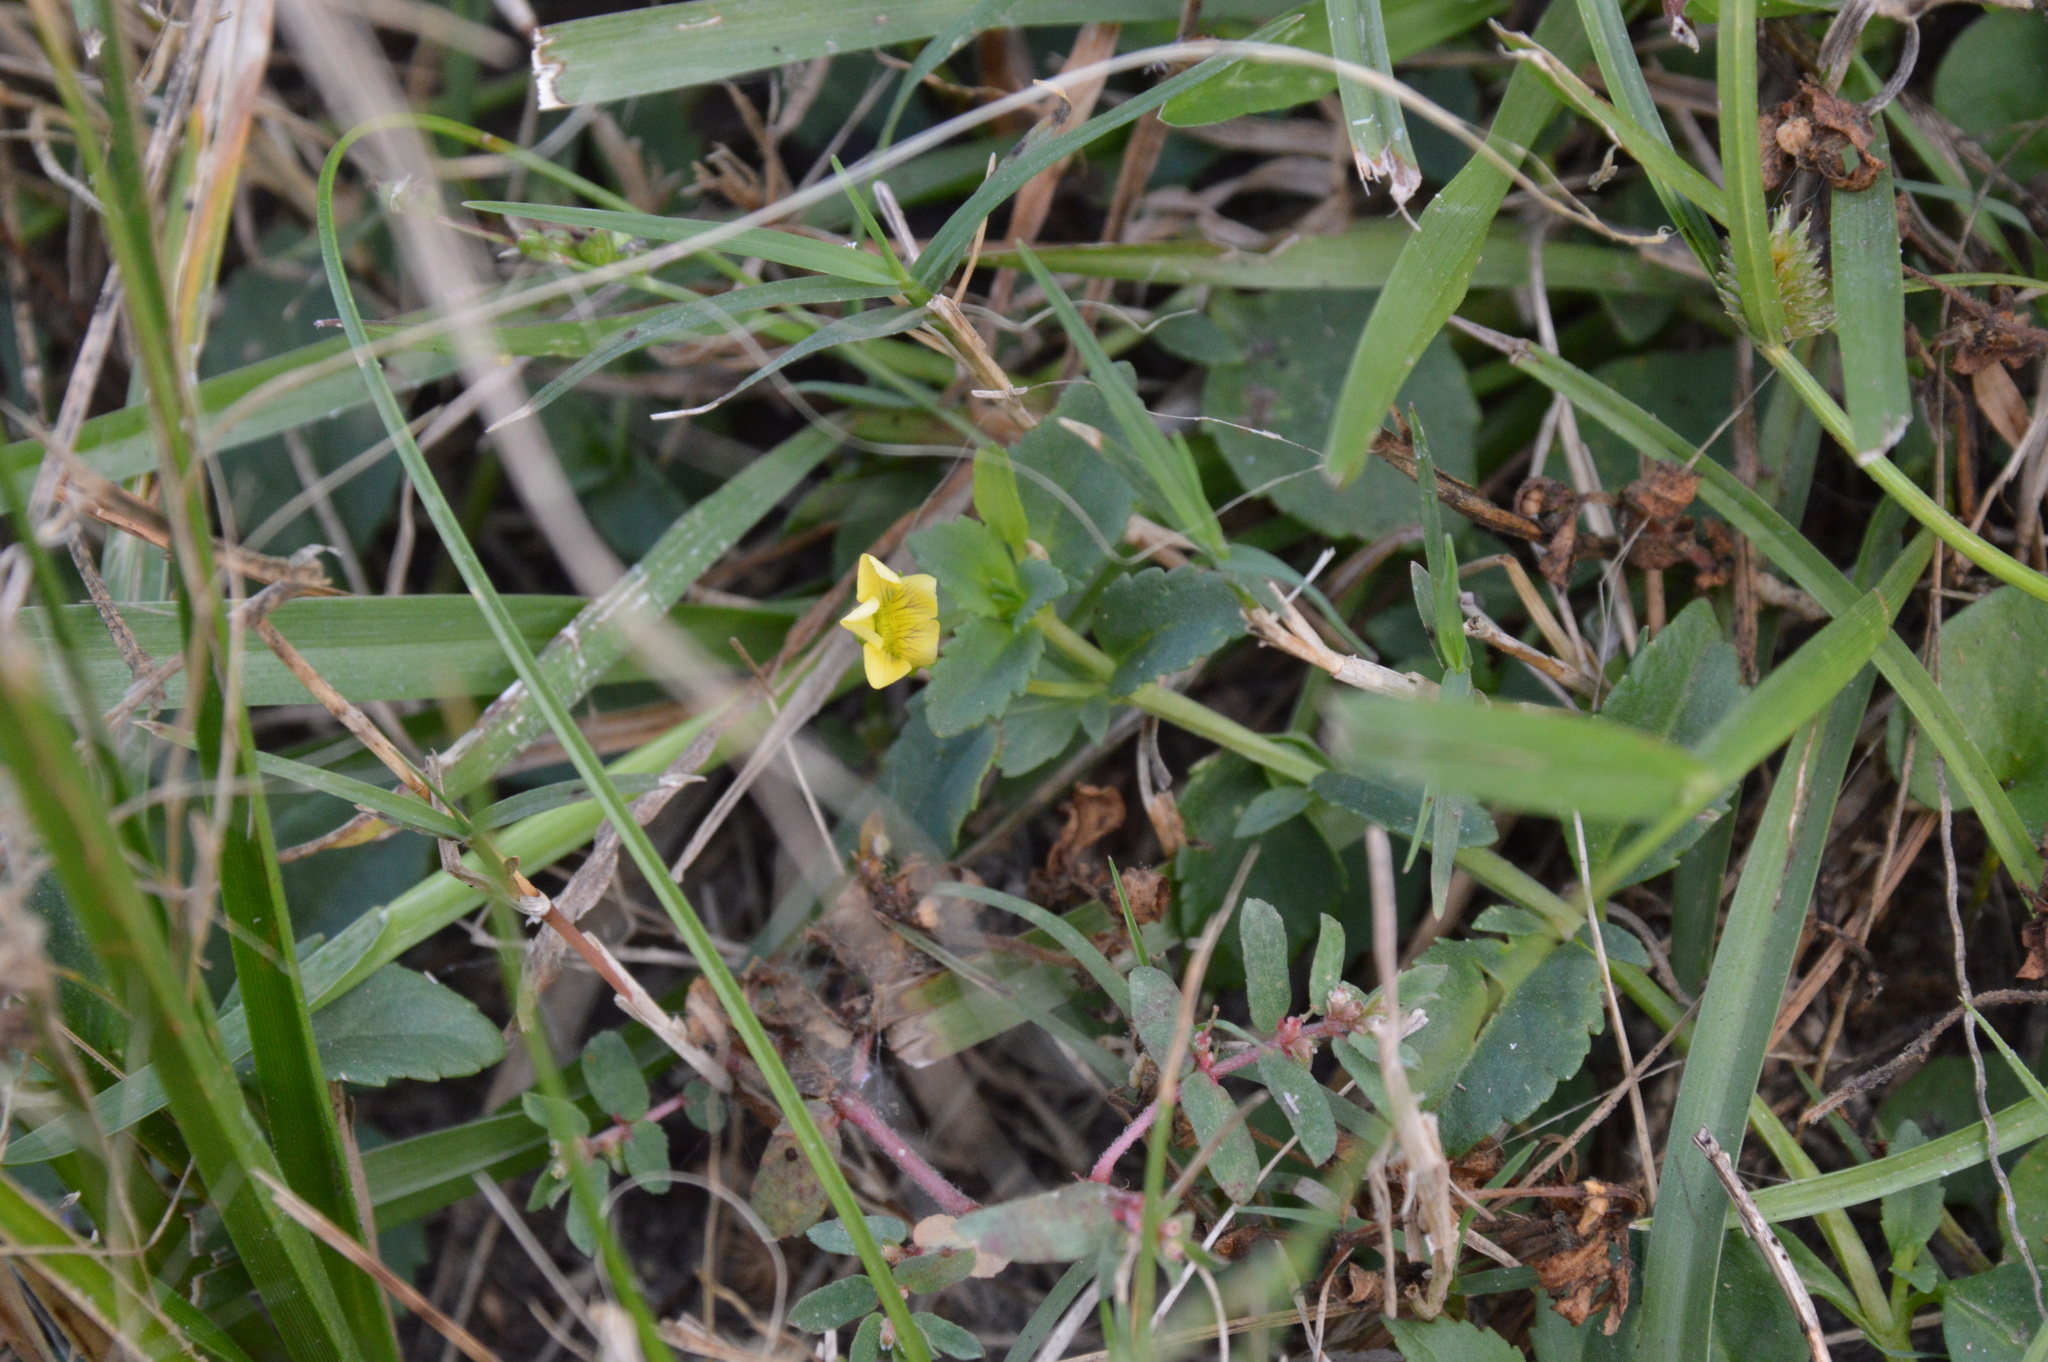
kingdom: Plantae
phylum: Tracheophyta
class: Magnoliopsida
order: Lamiales
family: Plantaginaceae
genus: Mecardonia
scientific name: Mecardonia procumbens
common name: Baby jump-up
